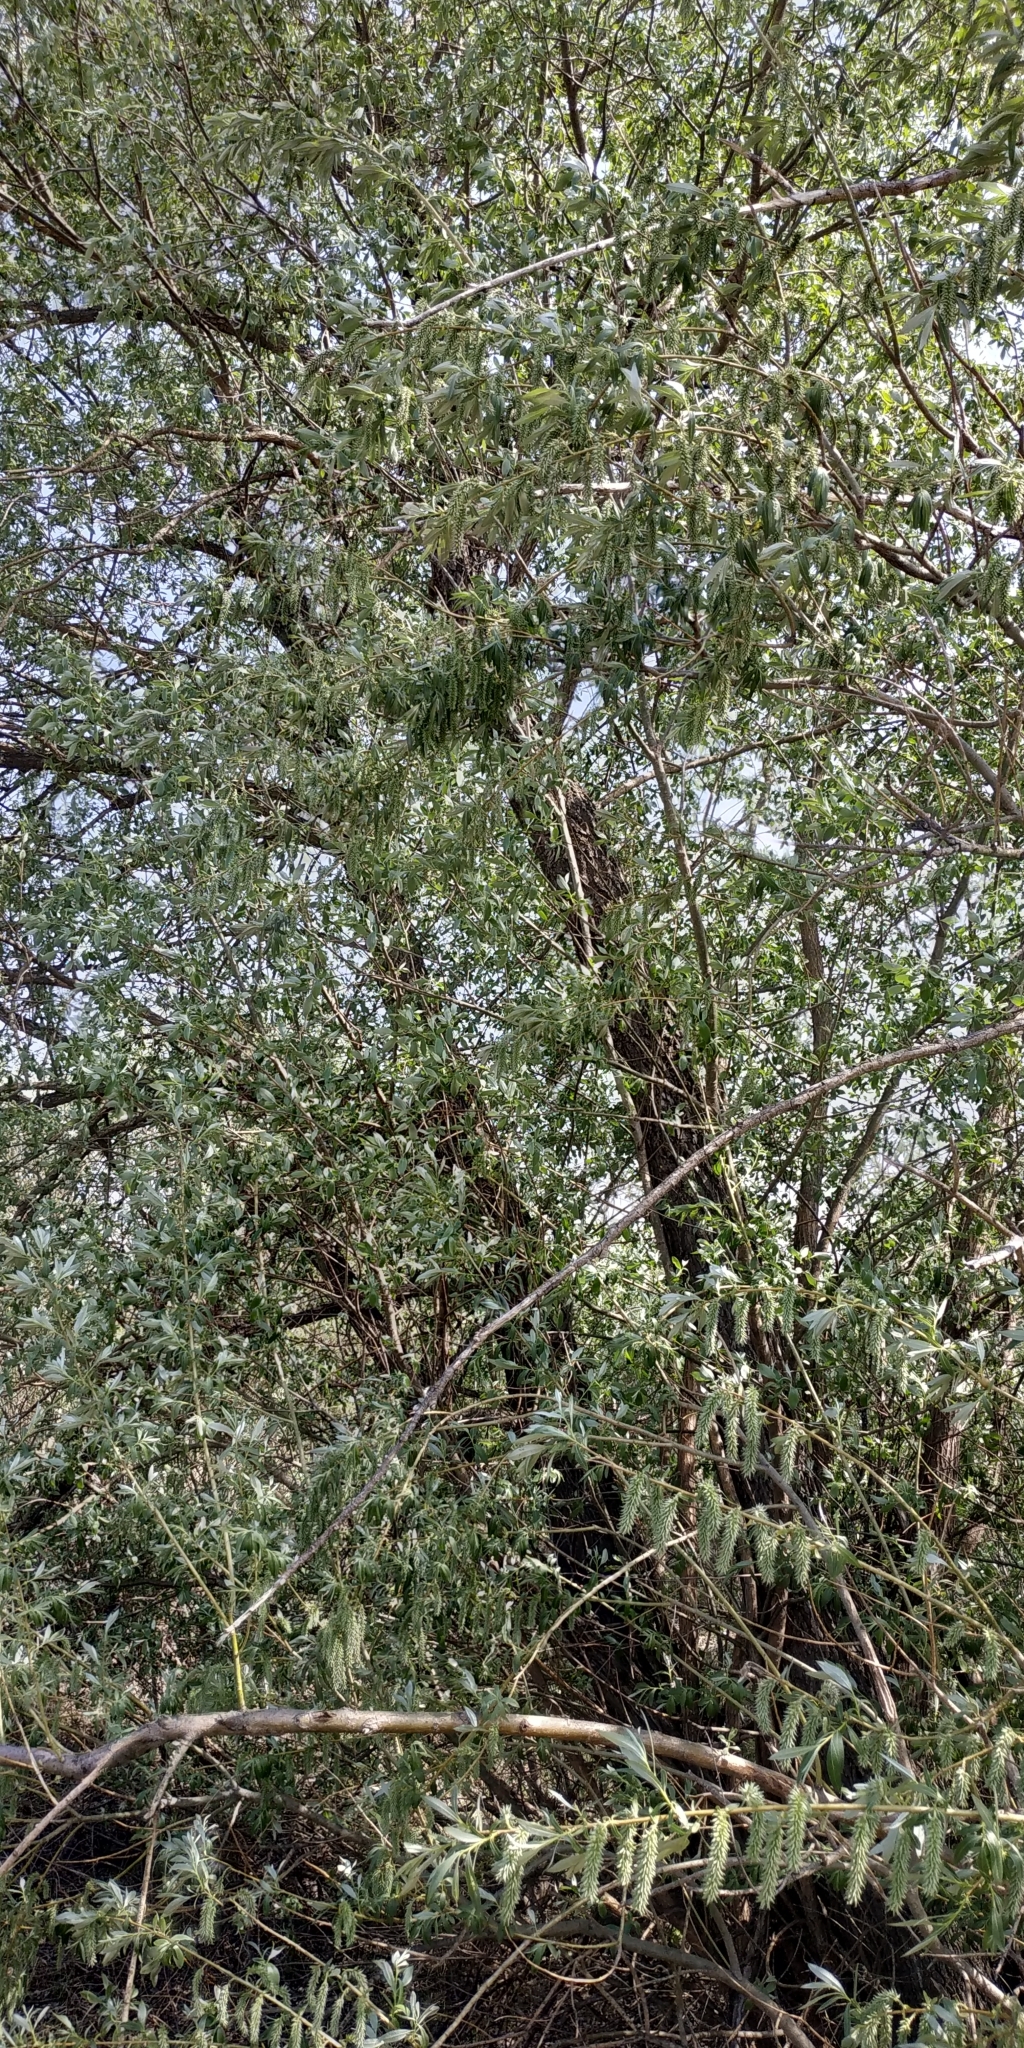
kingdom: Plantae
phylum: Tracheophyta
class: Magnoliopsida
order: Malpighiales
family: Salicaceae
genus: Salix
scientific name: Salix alba
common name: White willow
